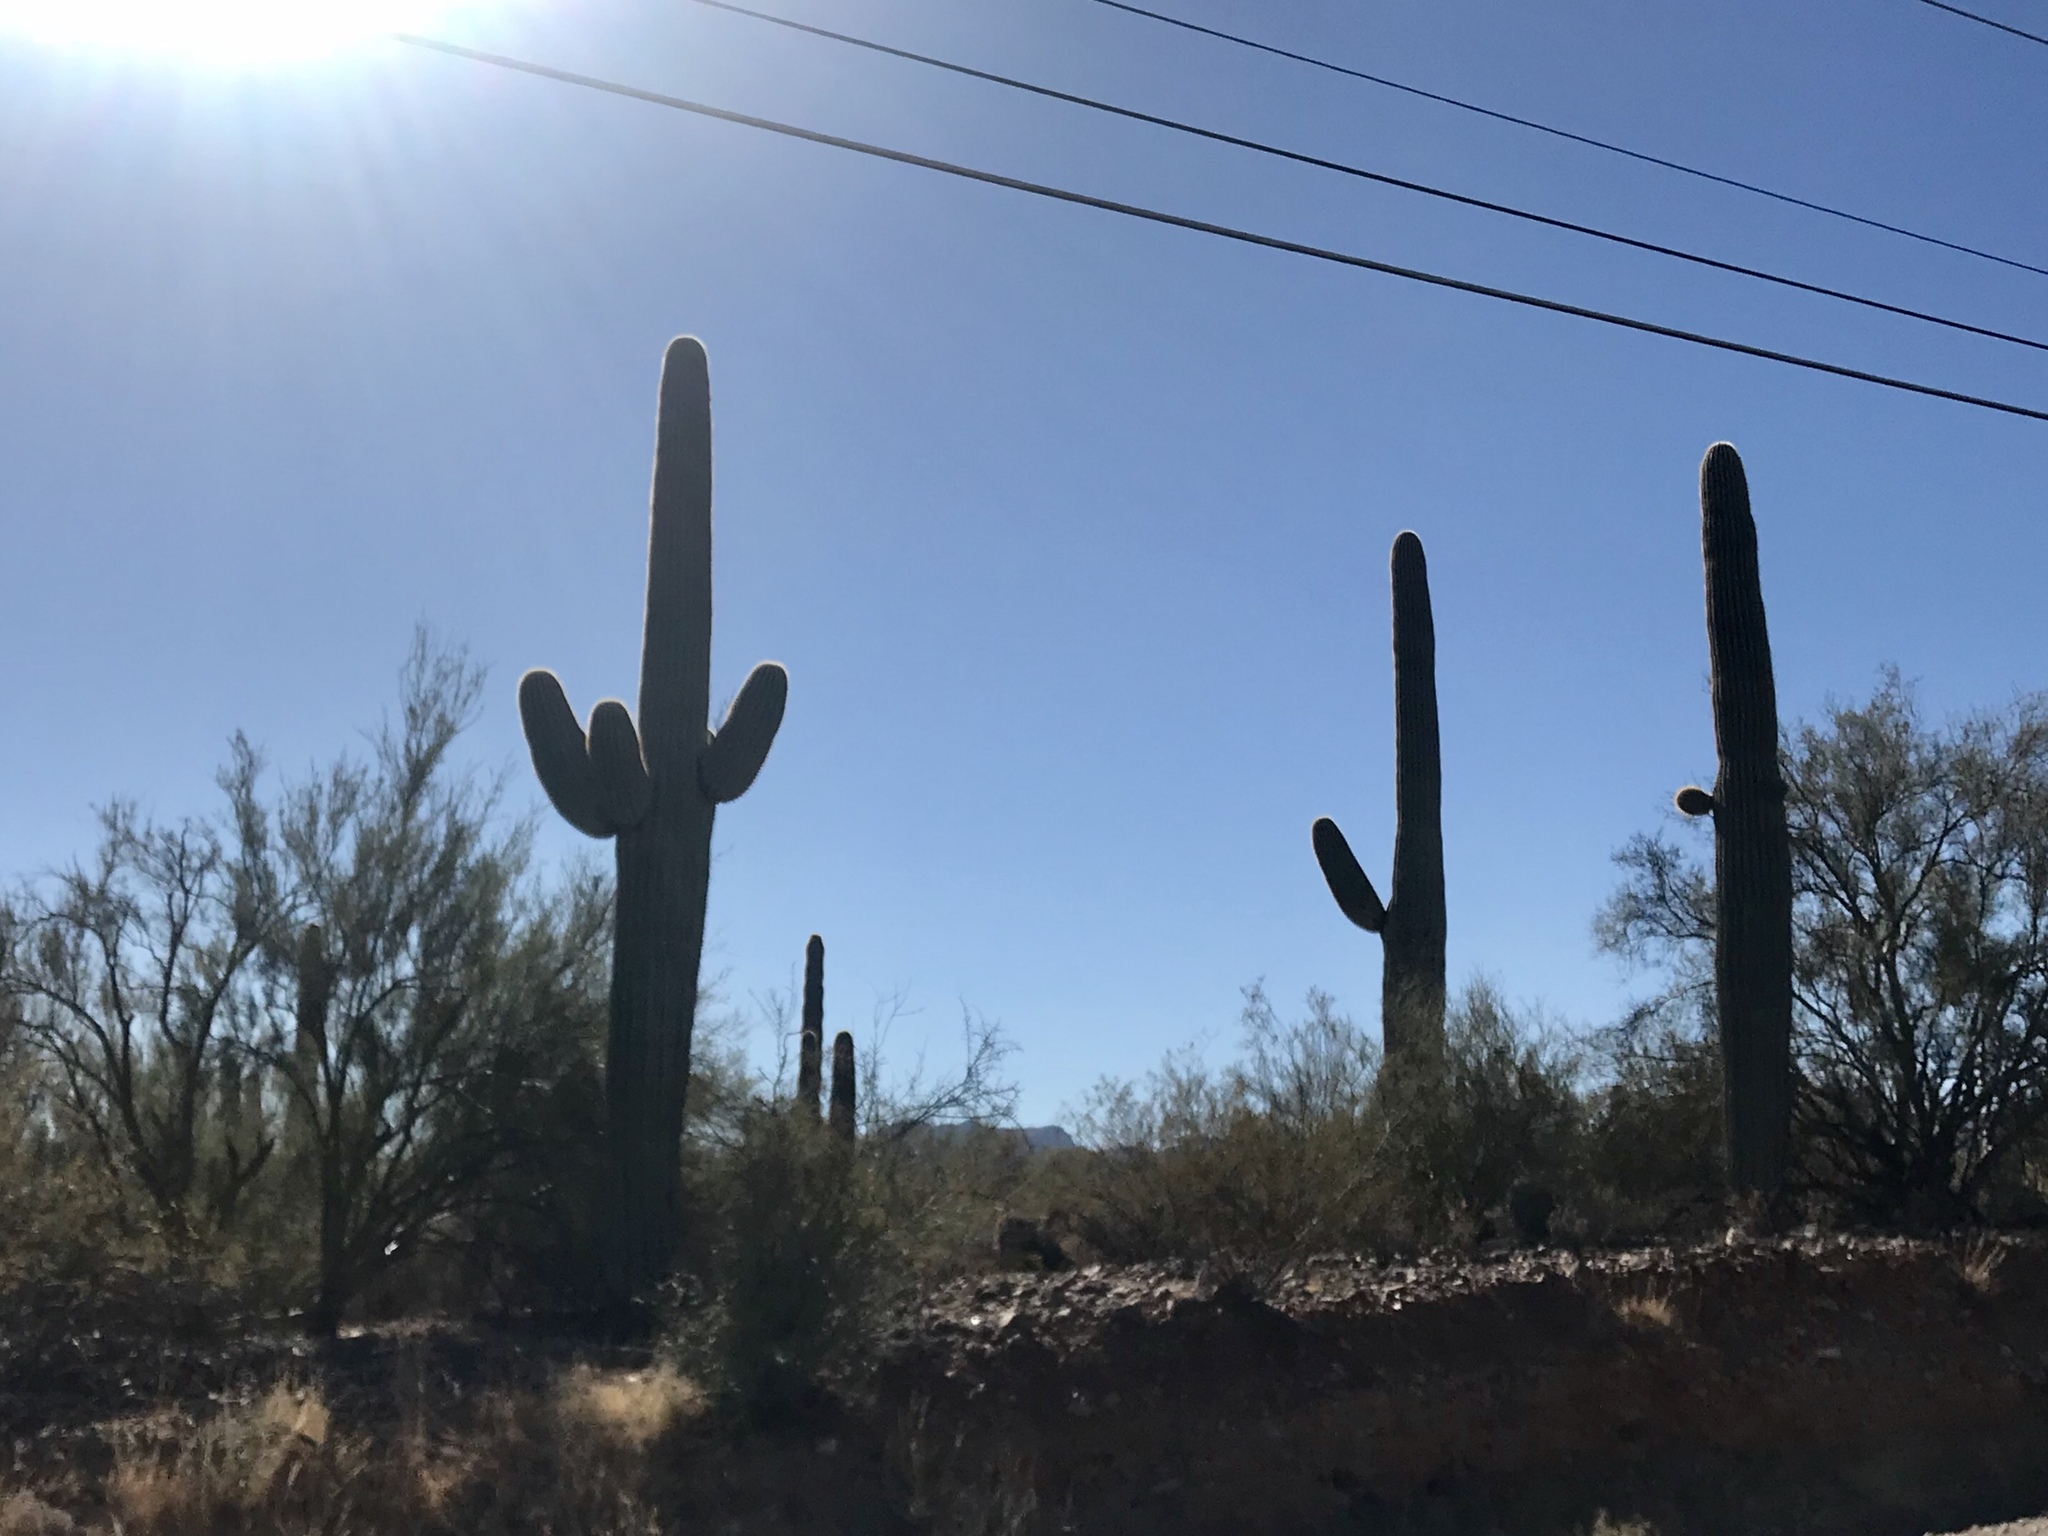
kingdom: Plantae
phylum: Tracheophyta
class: Magnoliopsida
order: Caryophyllales
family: Cactaceae
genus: Carnegiea
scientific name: Carnegiea gigantea
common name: Saguaro
